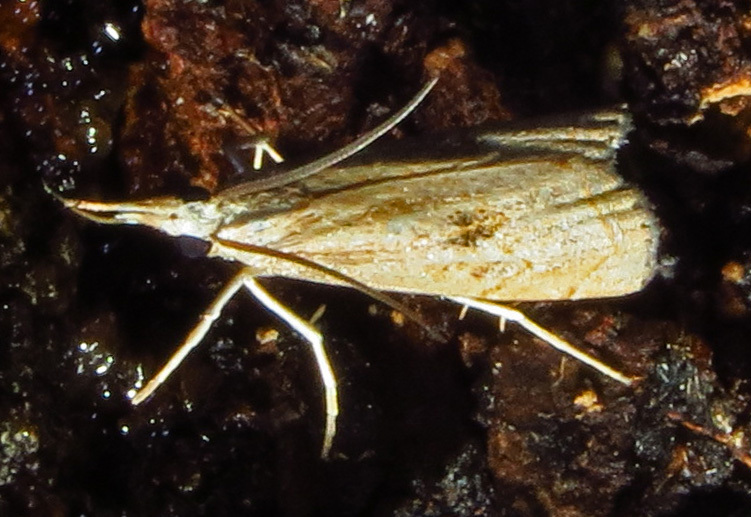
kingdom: Animalia
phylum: Arthropoda
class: Insecta
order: Lepidoptera
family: Crambidae
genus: Parapediasia
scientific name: Parapediasia teterellus
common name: Bluegrass webworm moth
